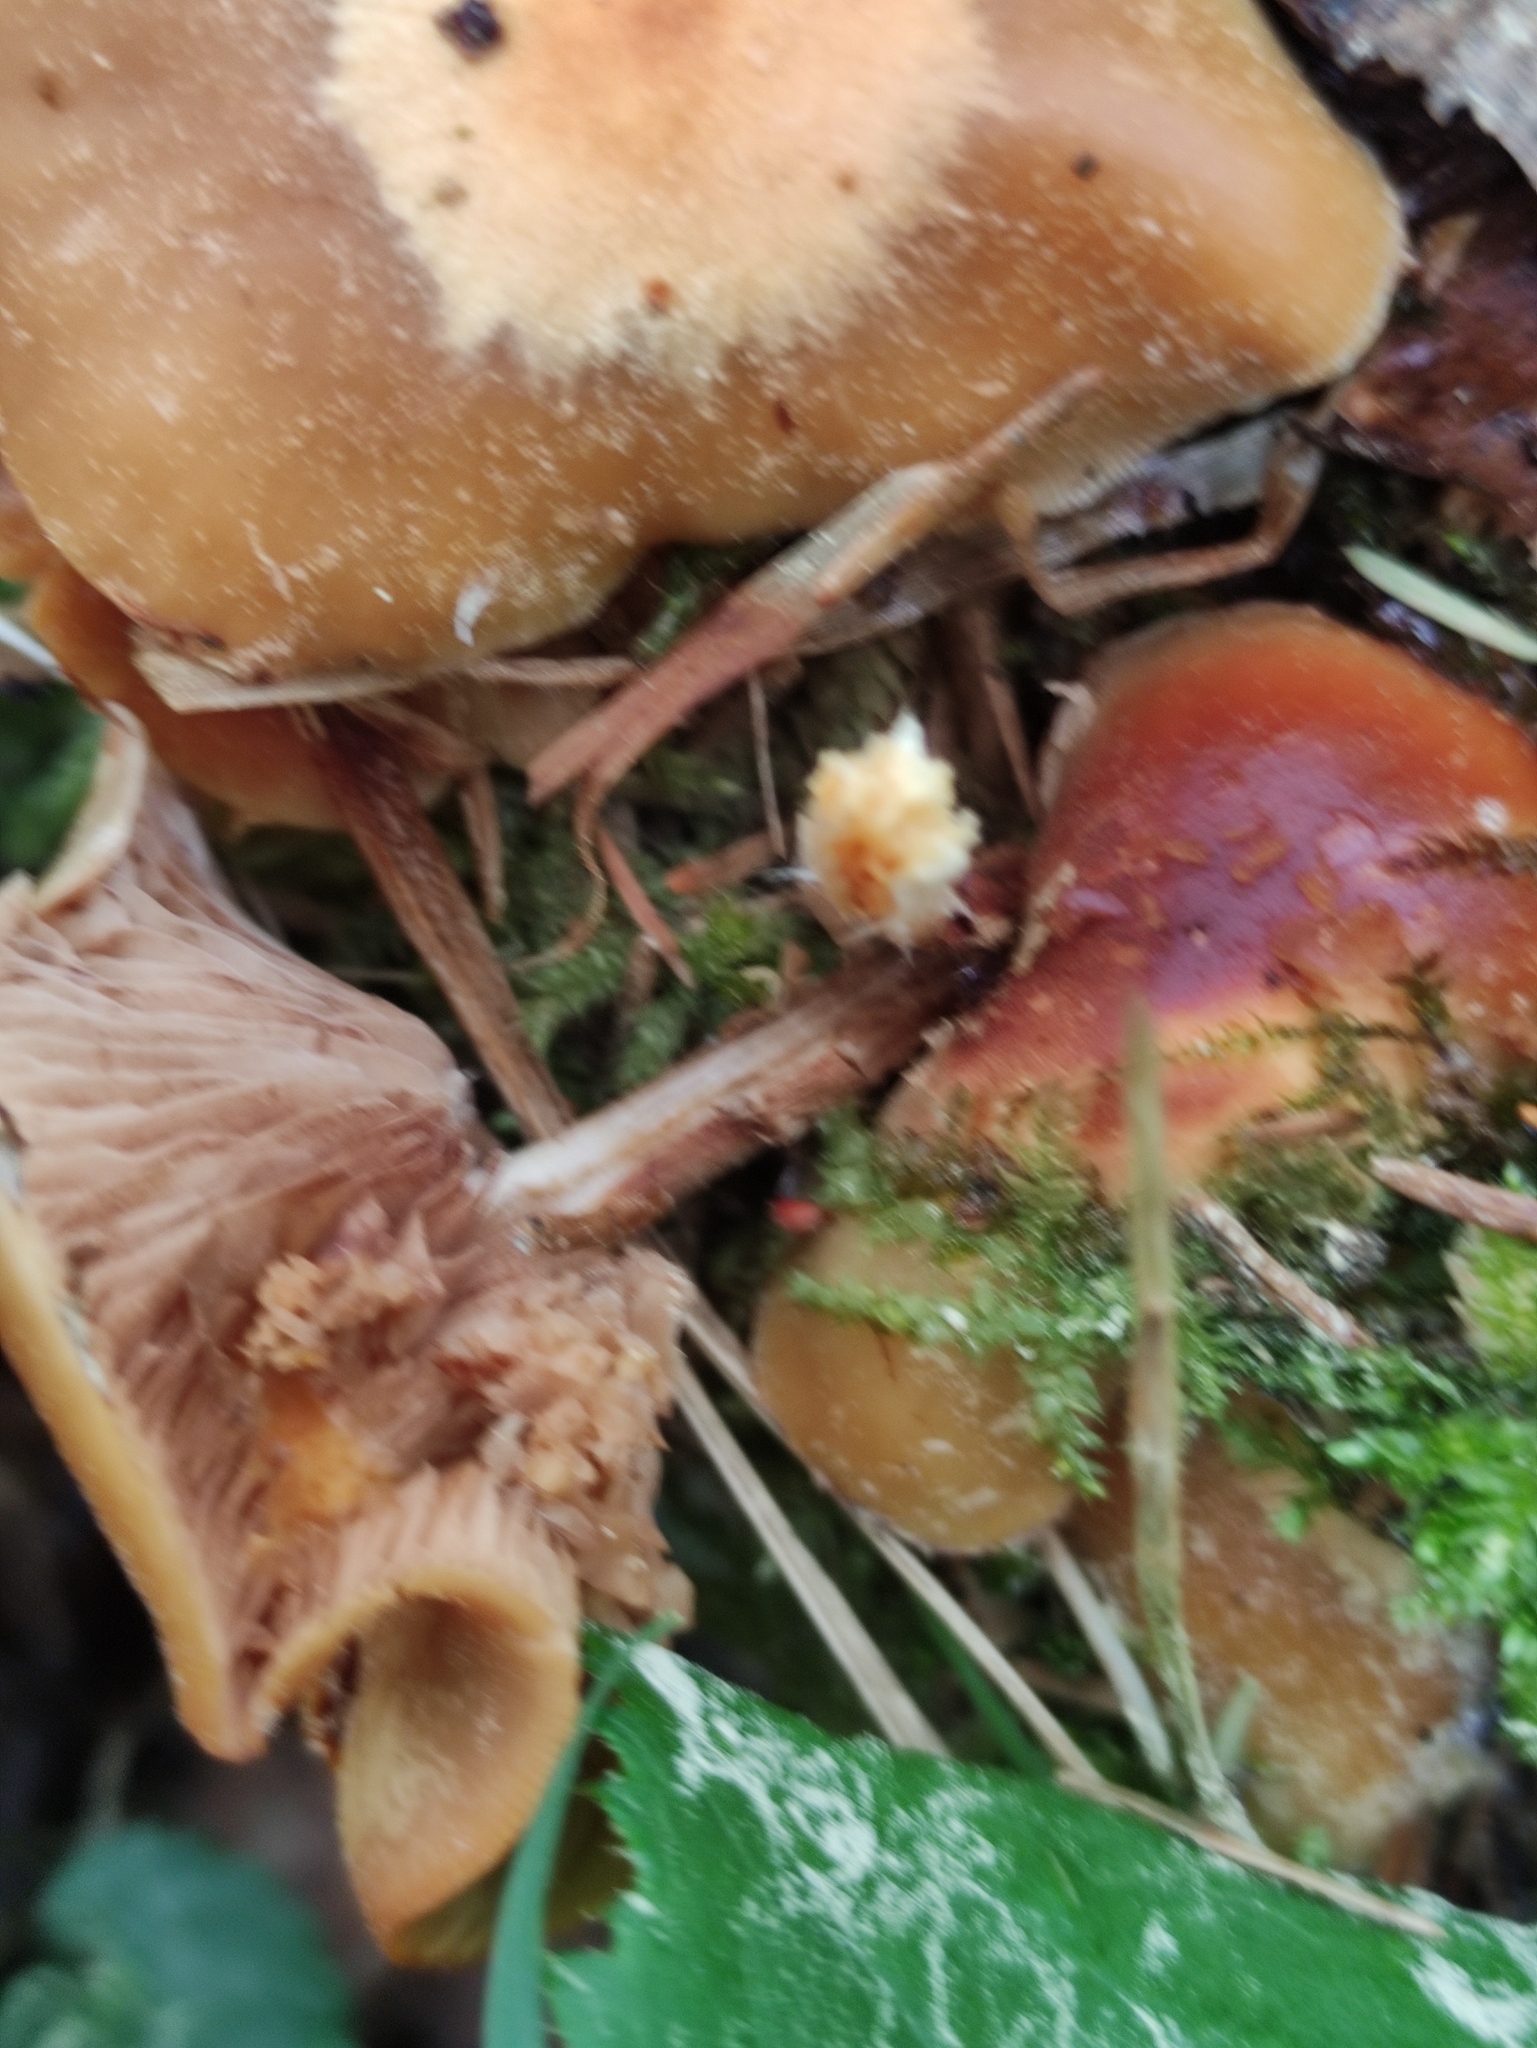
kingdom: Fungi
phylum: Basidiomycota
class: Agaricomycetes
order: Agaricales
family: Strophariaceae
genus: Kuehneromyces
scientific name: Kuehneromyces mutabilis
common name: Sheathed woodtuft
